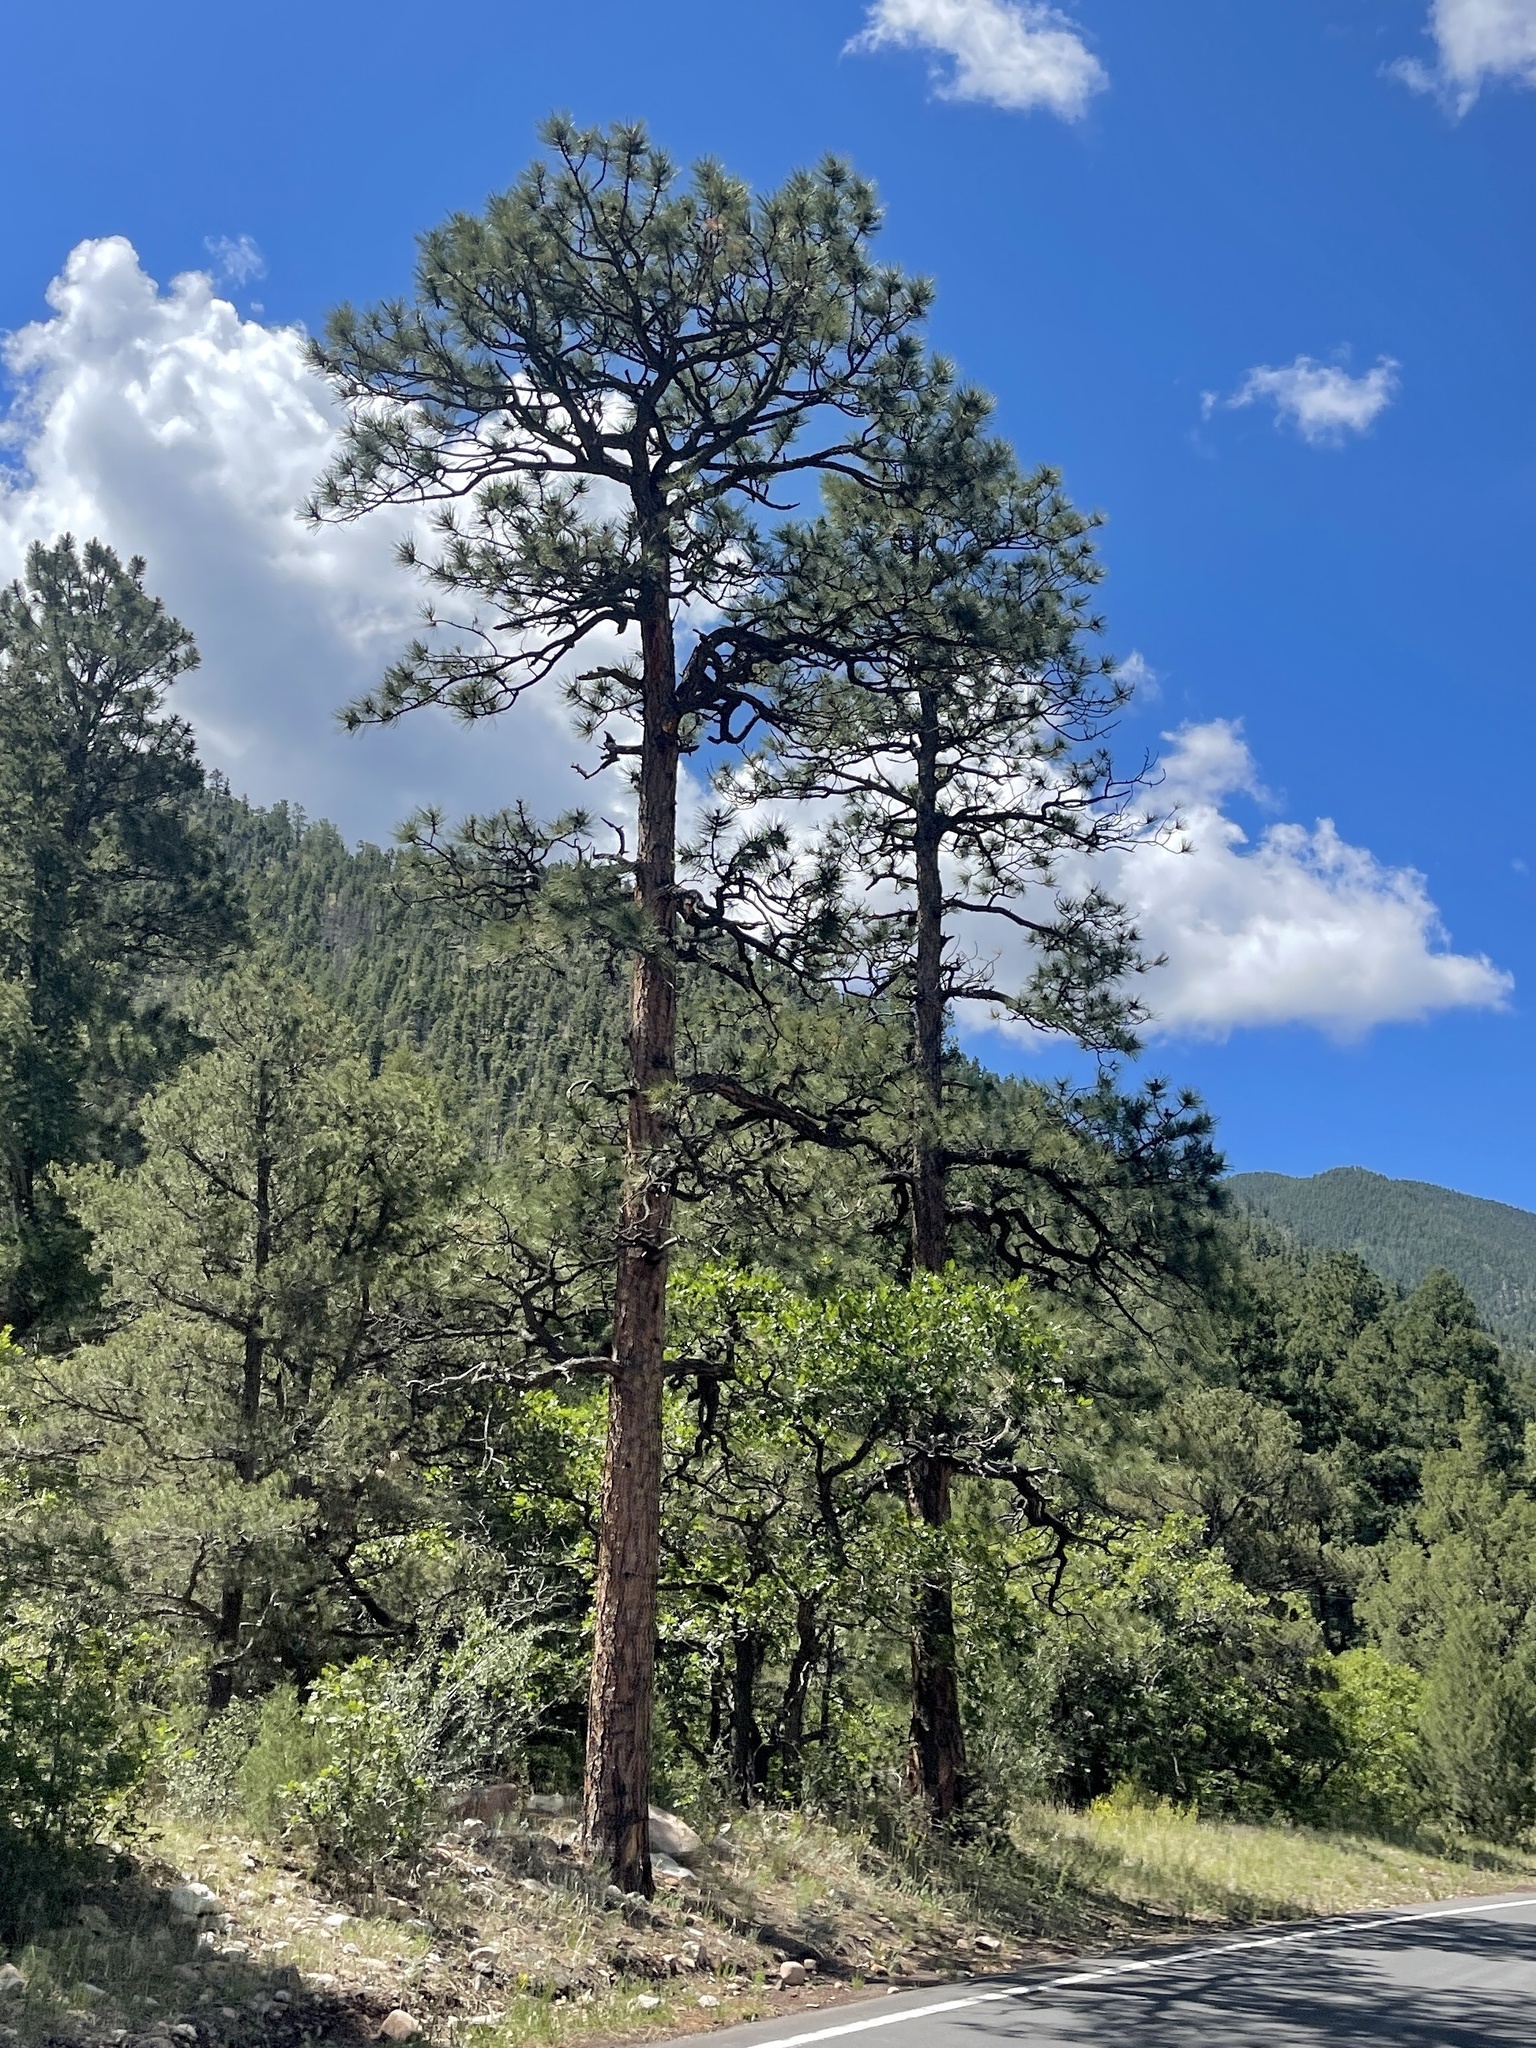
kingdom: Plantae
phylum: Tracheophyta
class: Pinopsida
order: Pinales
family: Pinaceae
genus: Pinus
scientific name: Pinus ponderosa
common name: Western yellow-pine
